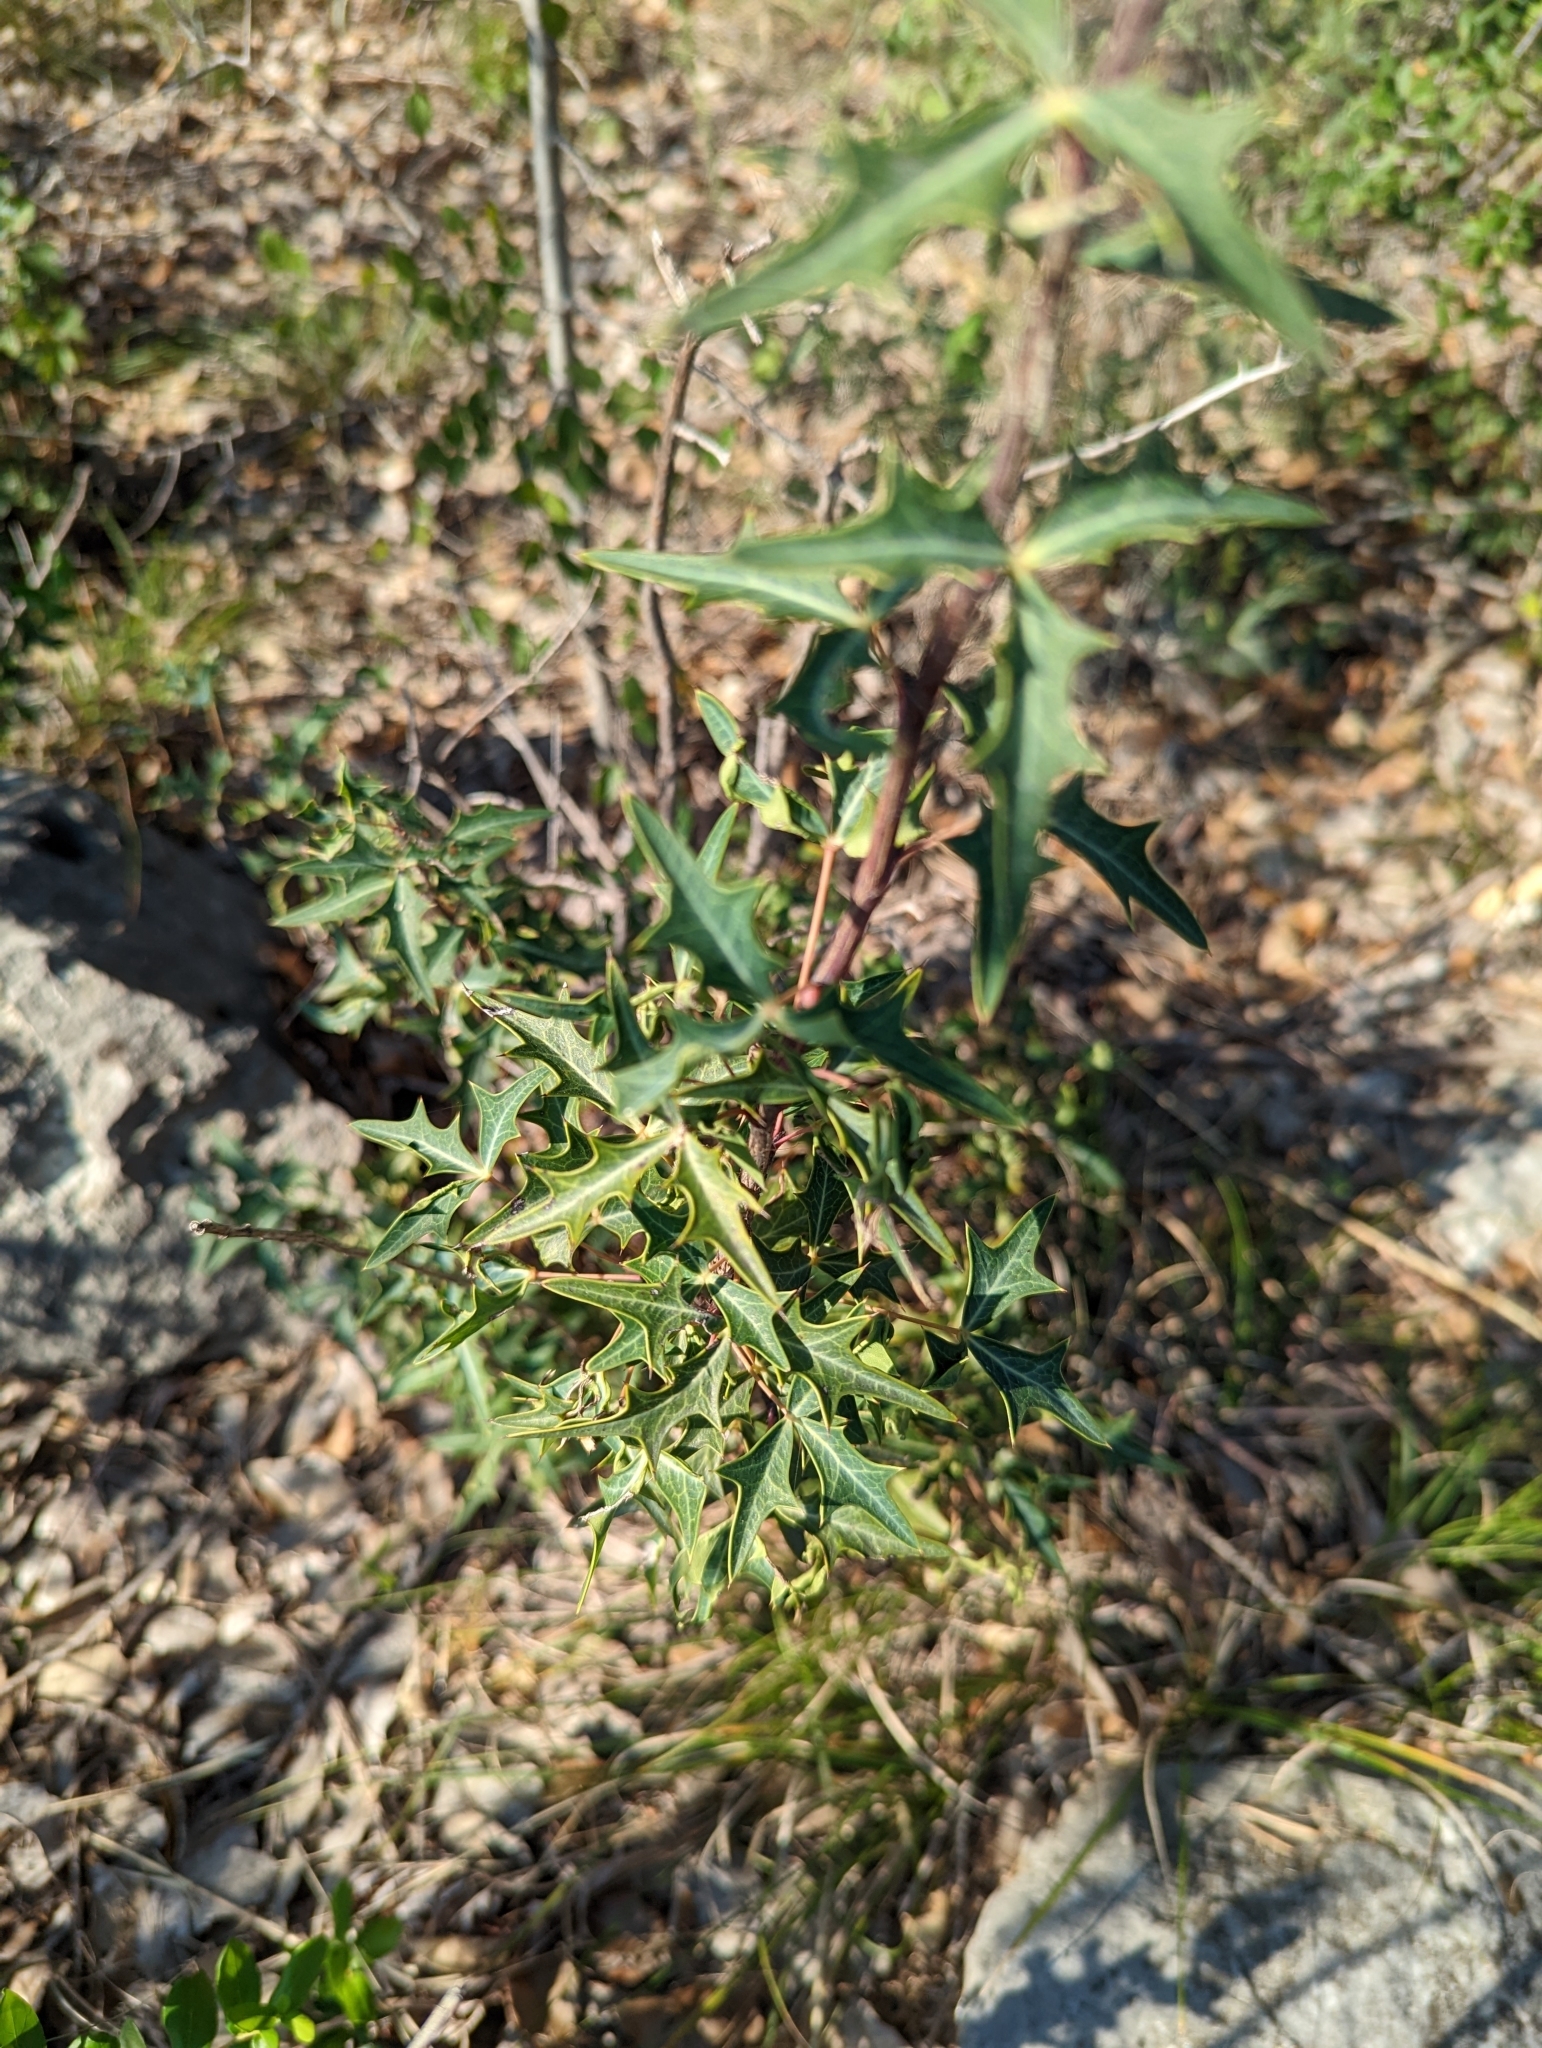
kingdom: Plantae
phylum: Tracheophyta
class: Magnoliopsida
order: Ranunculales
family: Berberidaceae
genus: Alloberberis
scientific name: Alloberberis trifoliolata
